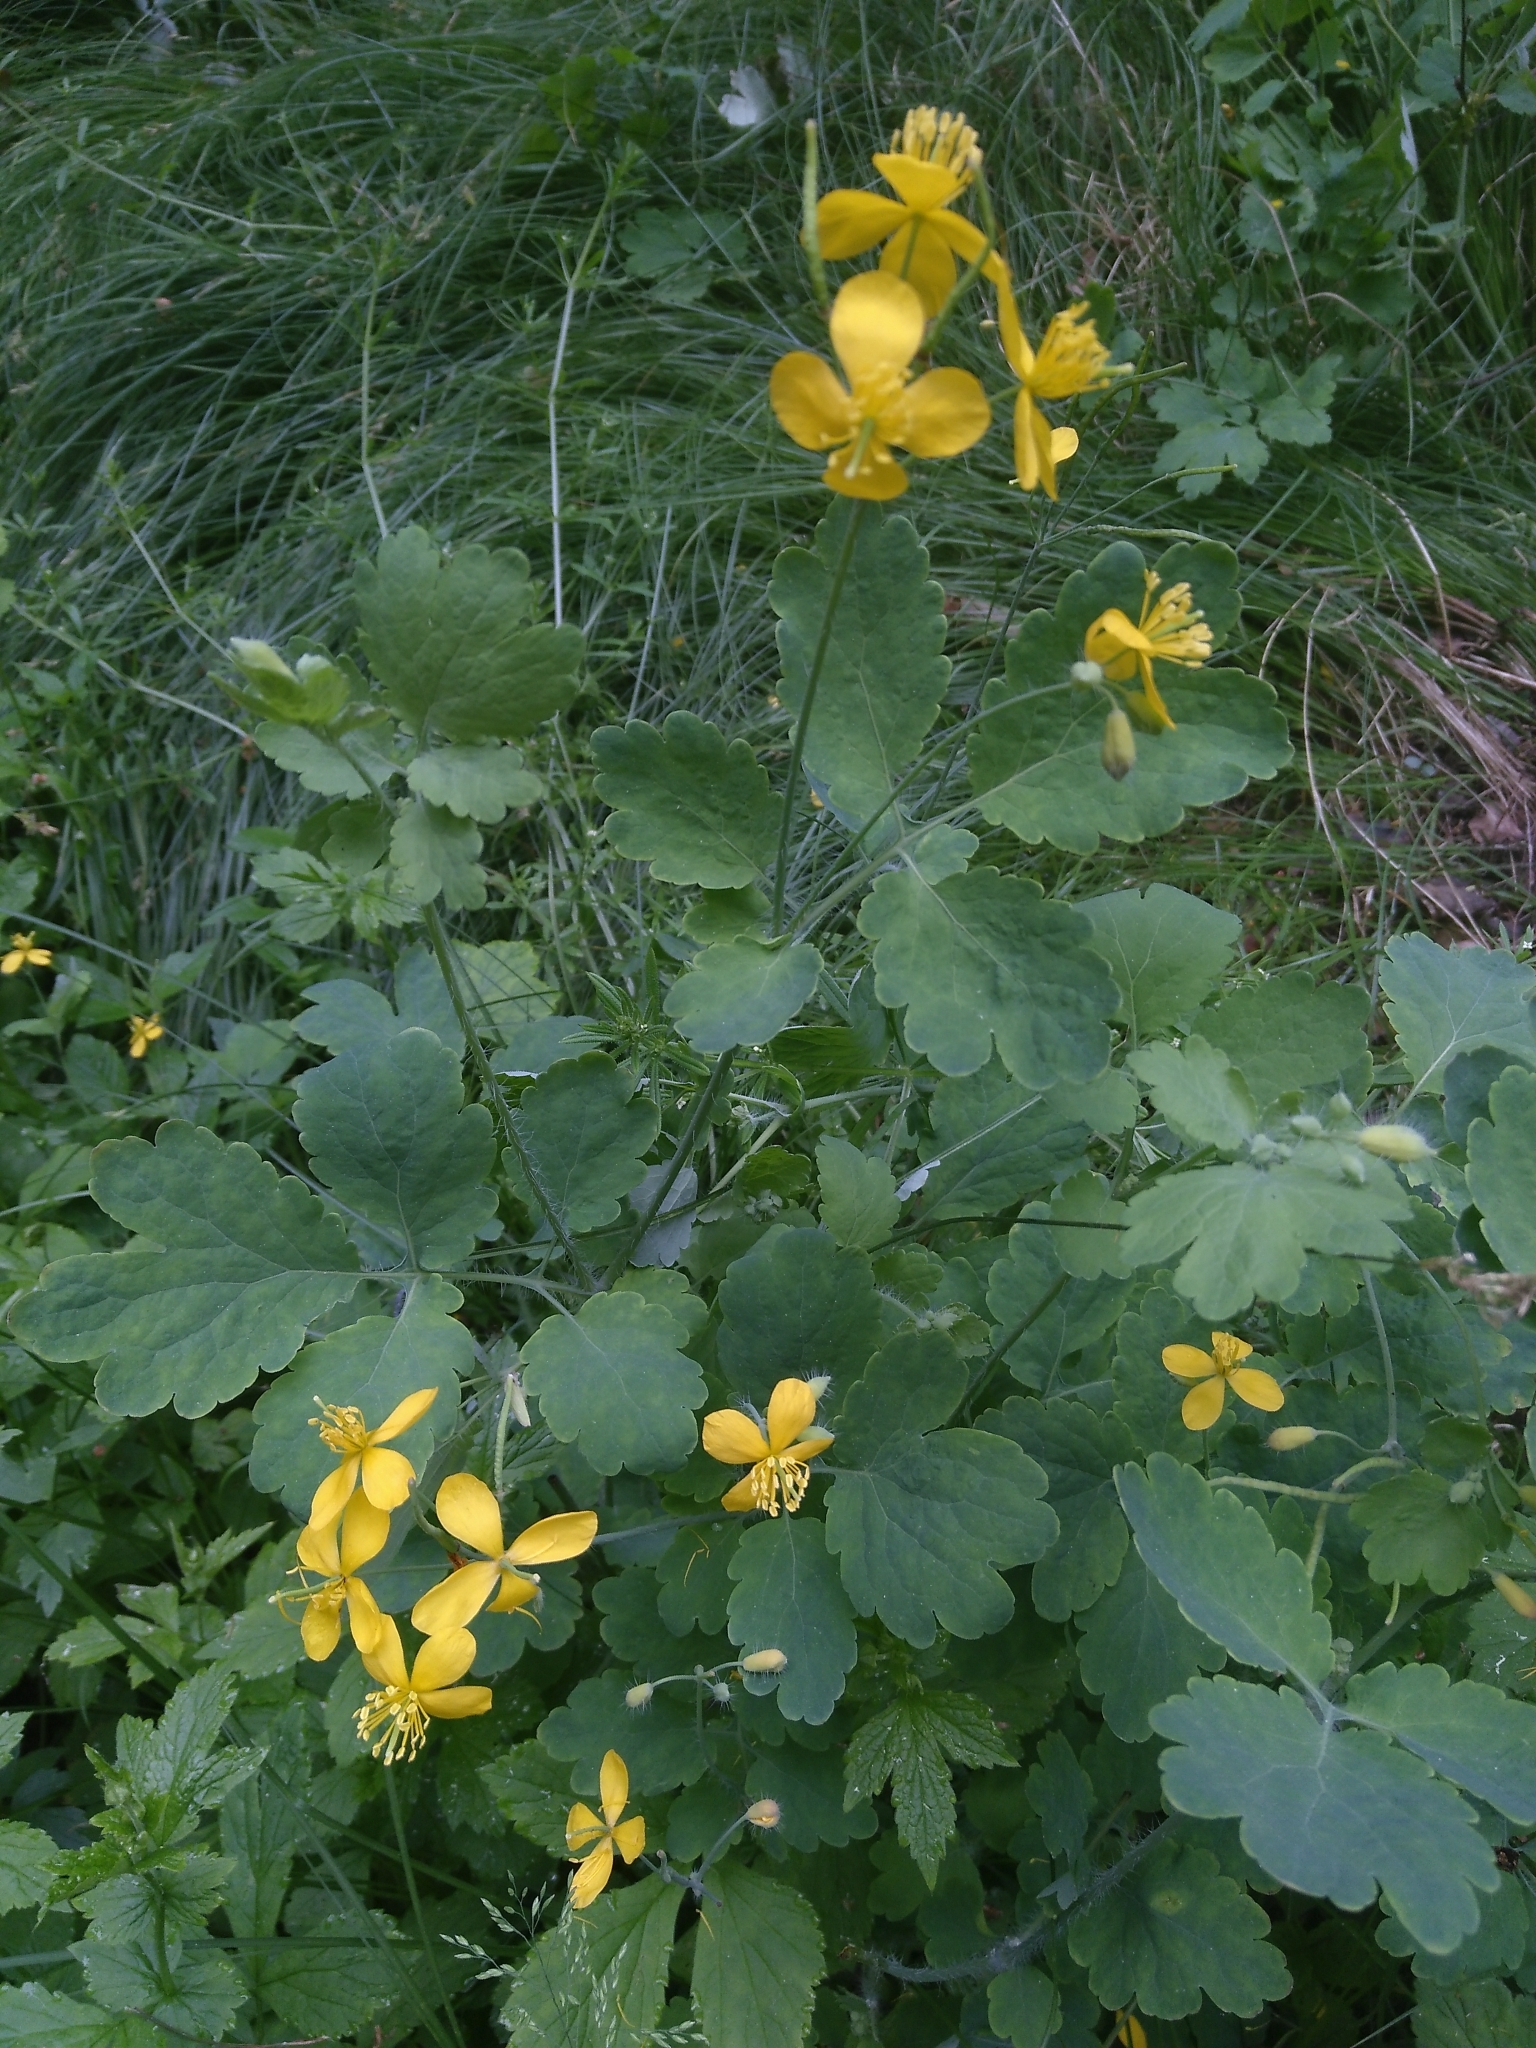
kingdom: Plantae
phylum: Tracheophyta
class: Magnoliopsida
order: Ranunculales
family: Papaveraceae
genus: Chelidonium
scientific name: Chelidonium majus
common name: Greater celandine
